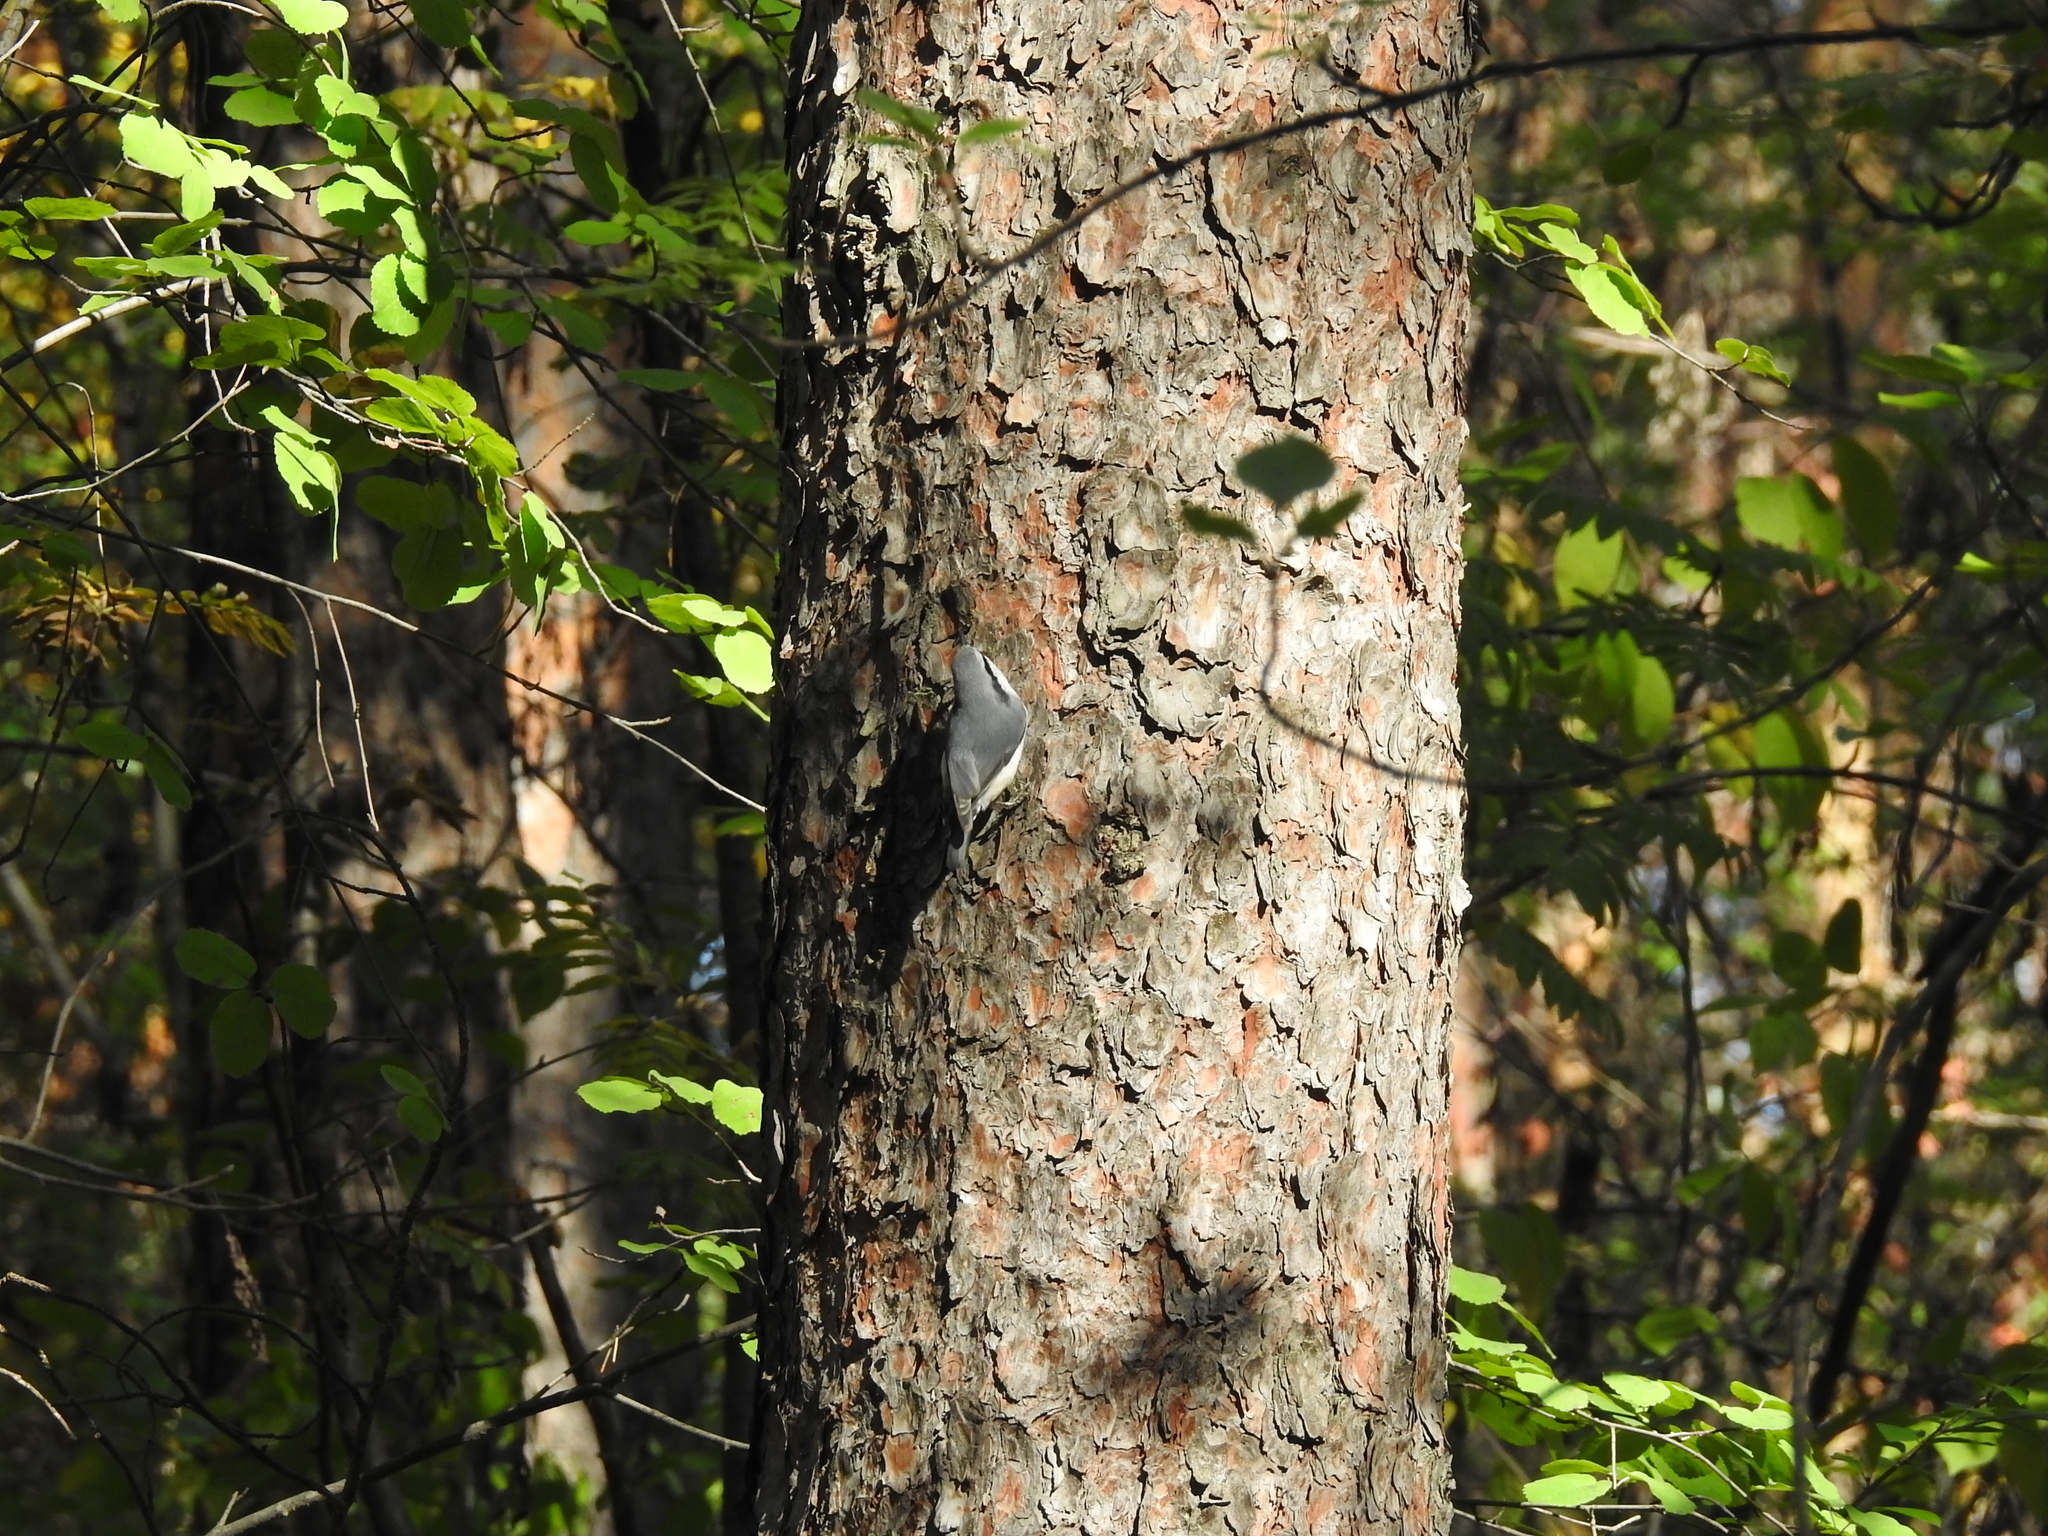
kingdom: Animalia
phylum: Chordata
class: Aves
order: Passeriformes
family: Sittidae
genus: Sitta
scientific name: Sitta europaea
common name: Eurasian nuthatch
